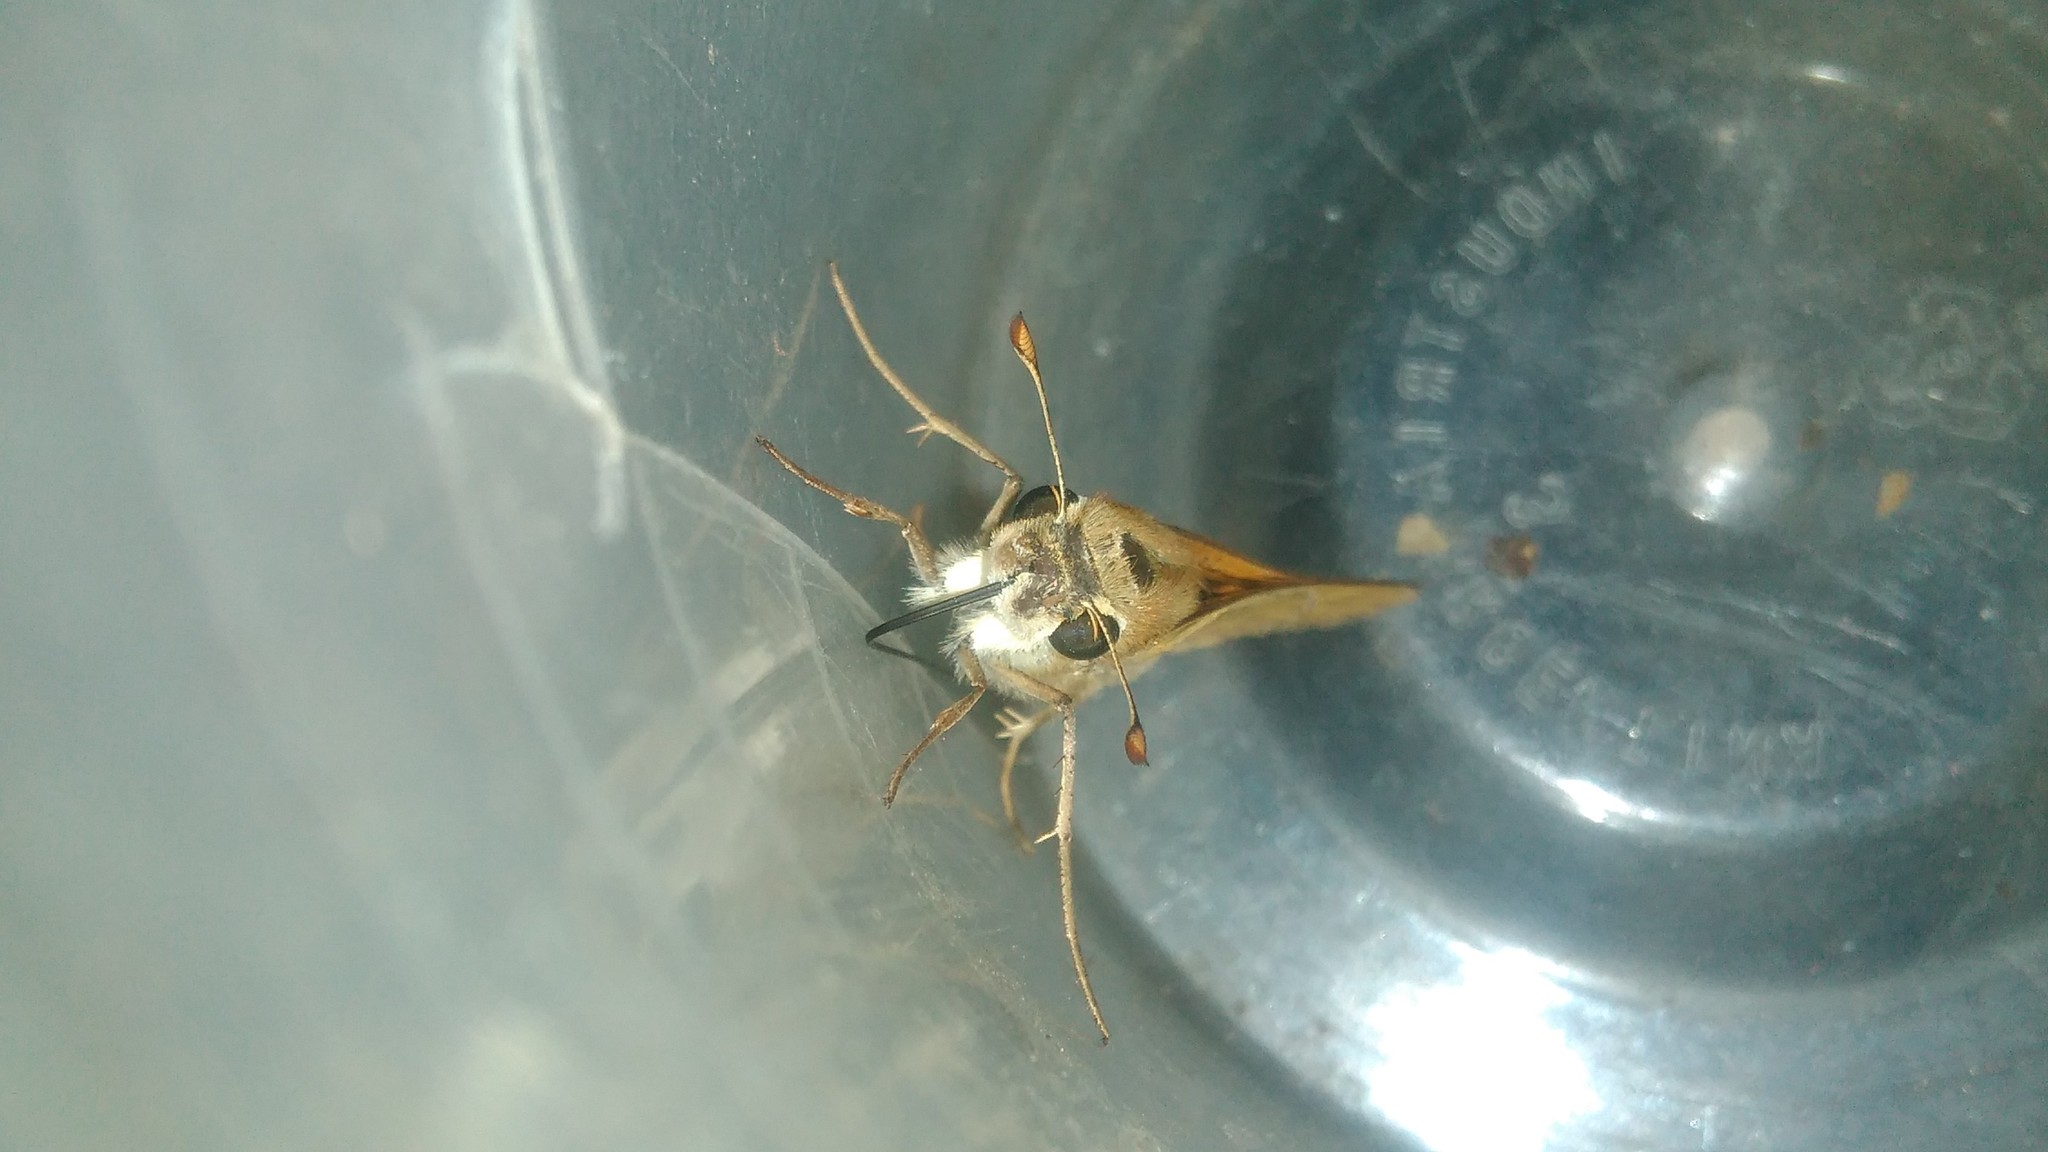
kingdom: Animalia
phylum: Arthropoda
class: Insecta
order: Lepidoptera
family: Hesperiidae
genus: Hylephila
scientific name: Hylephila phyleus
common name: Fiery skipper
